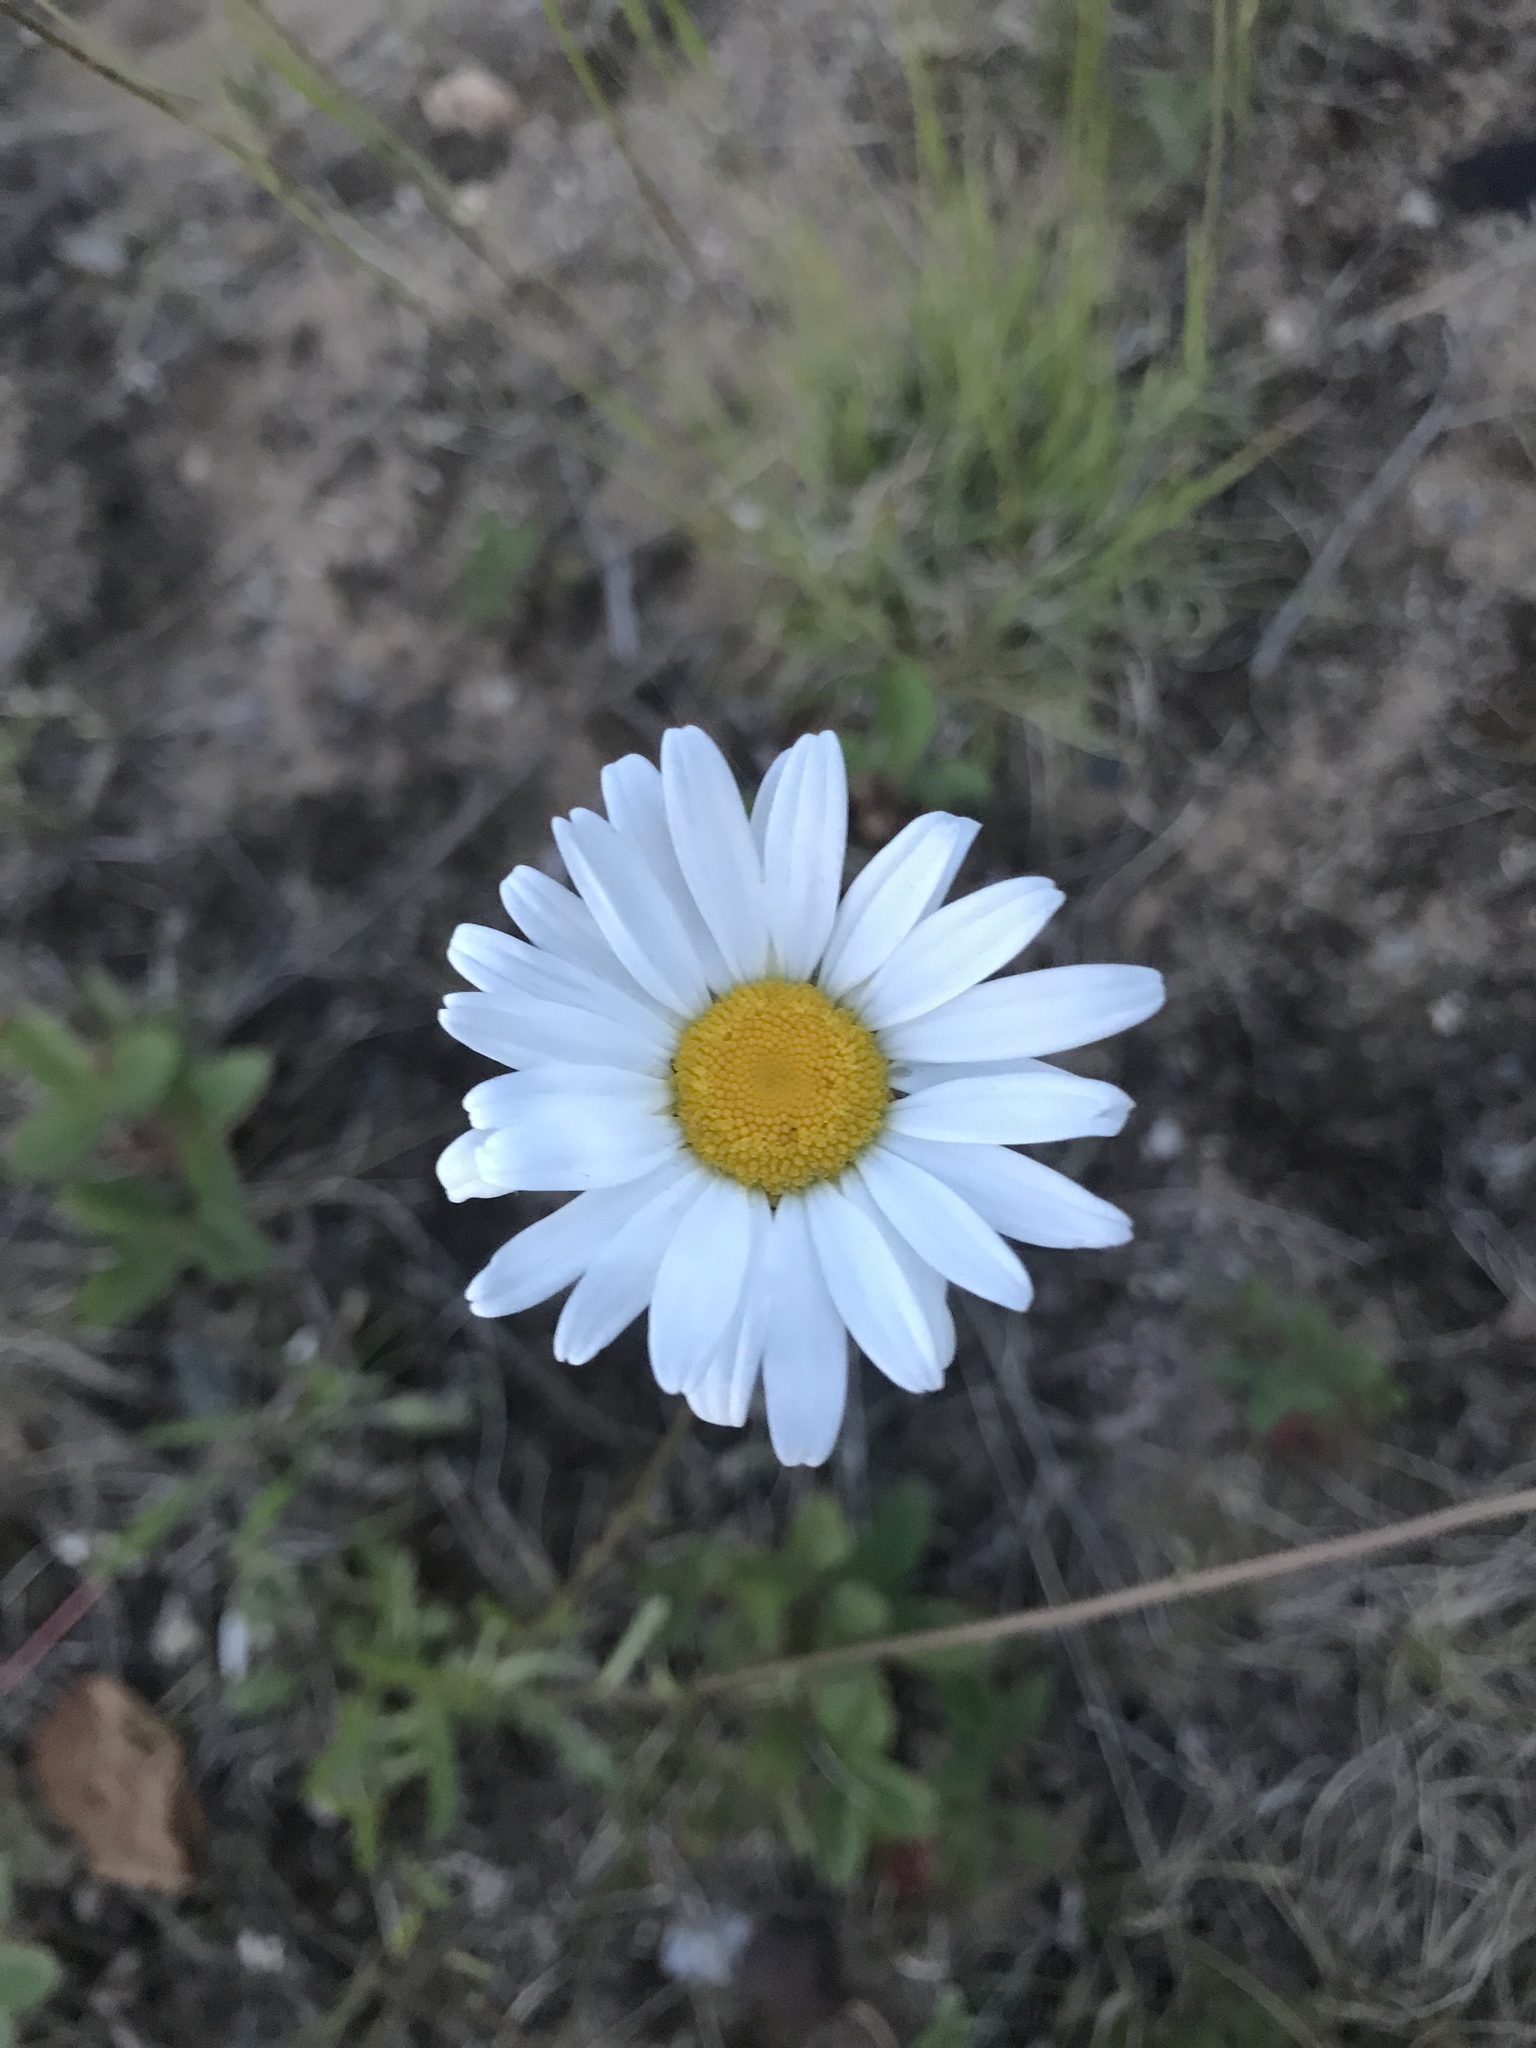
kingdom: Plantae
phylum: Tracheophyta
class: Magnoliopsida
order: Asterales
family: Asteraceae
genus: Leucanthemum
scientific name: Leucanthemum vulgare
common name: Oxeye daisy
